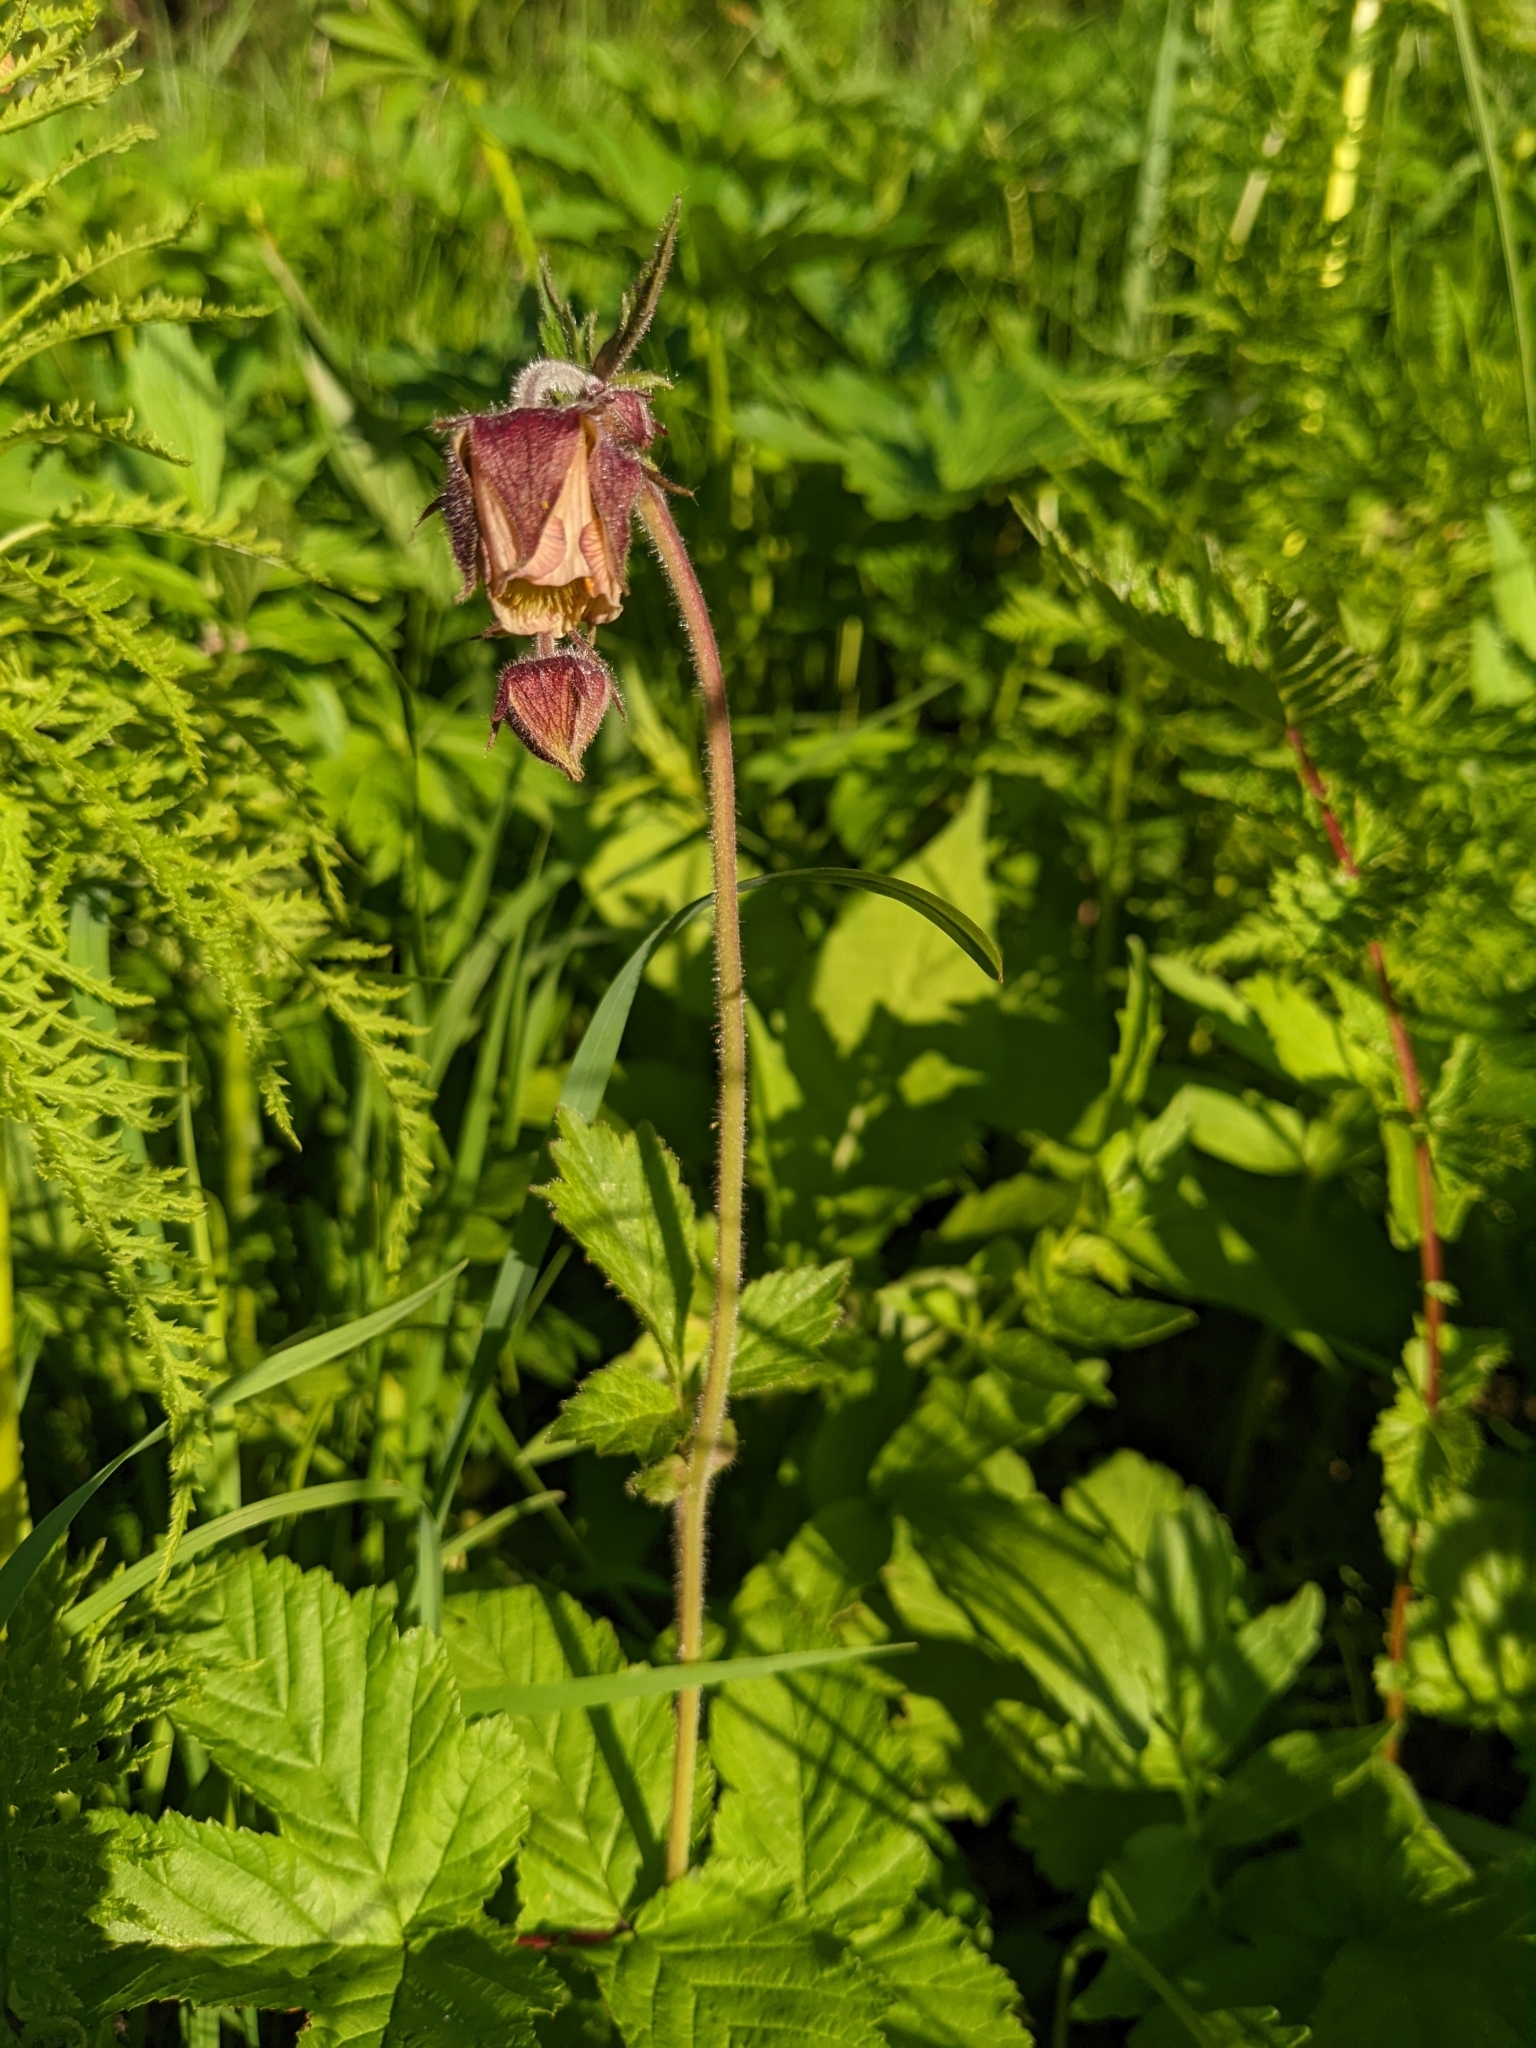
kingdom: Plantae
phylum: Tracheophyta
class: Magnoliopsida
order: Rosales
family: Rosaceae
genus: Geum
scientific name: Geum rivale
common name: Water avens
